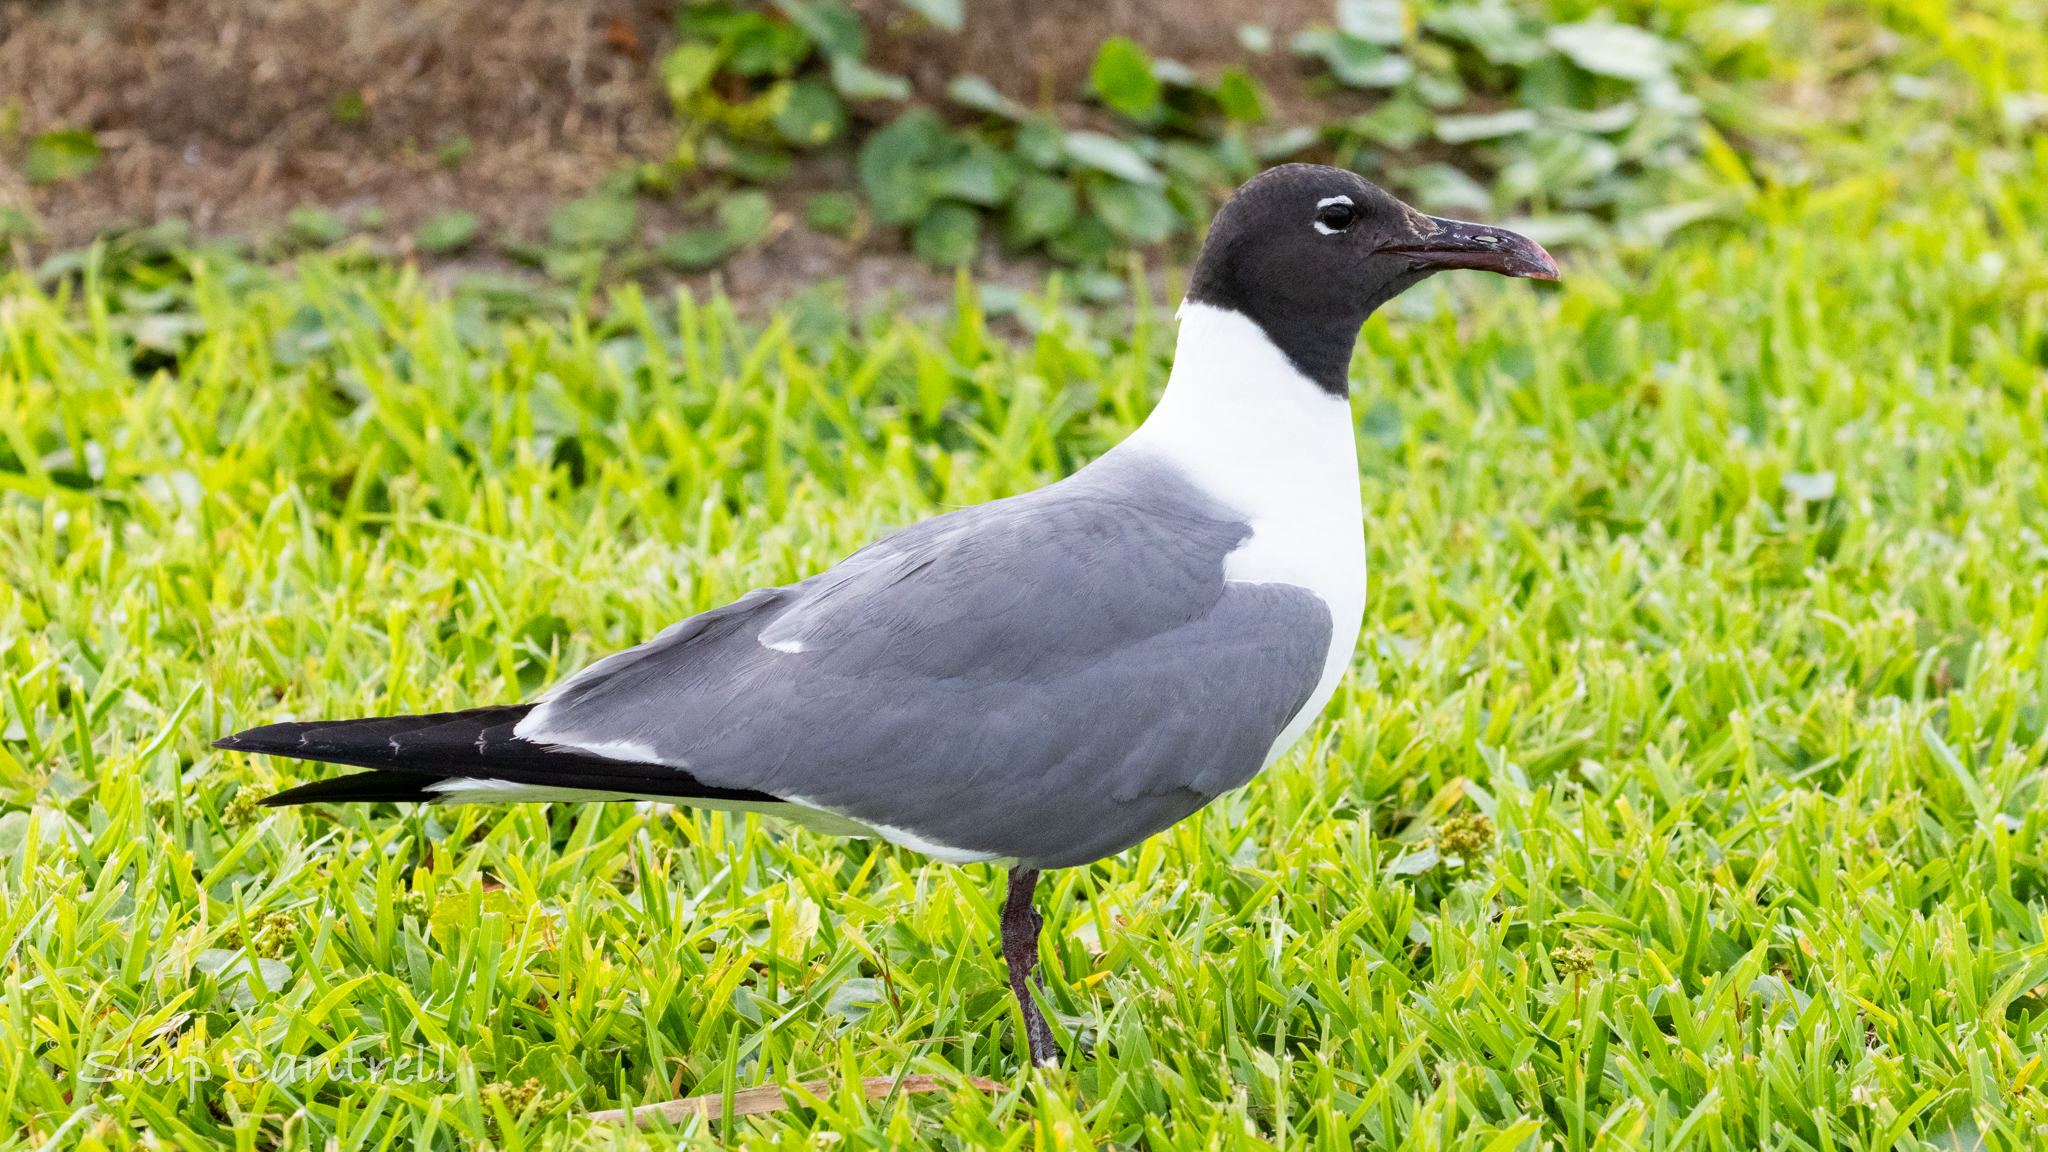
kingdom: Animalia
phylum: Chordata
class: Aves
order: Charadriiformes
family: Laridae
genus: Leucophaeus
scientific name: Leucophaeus atricilla
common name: Laughing gull
